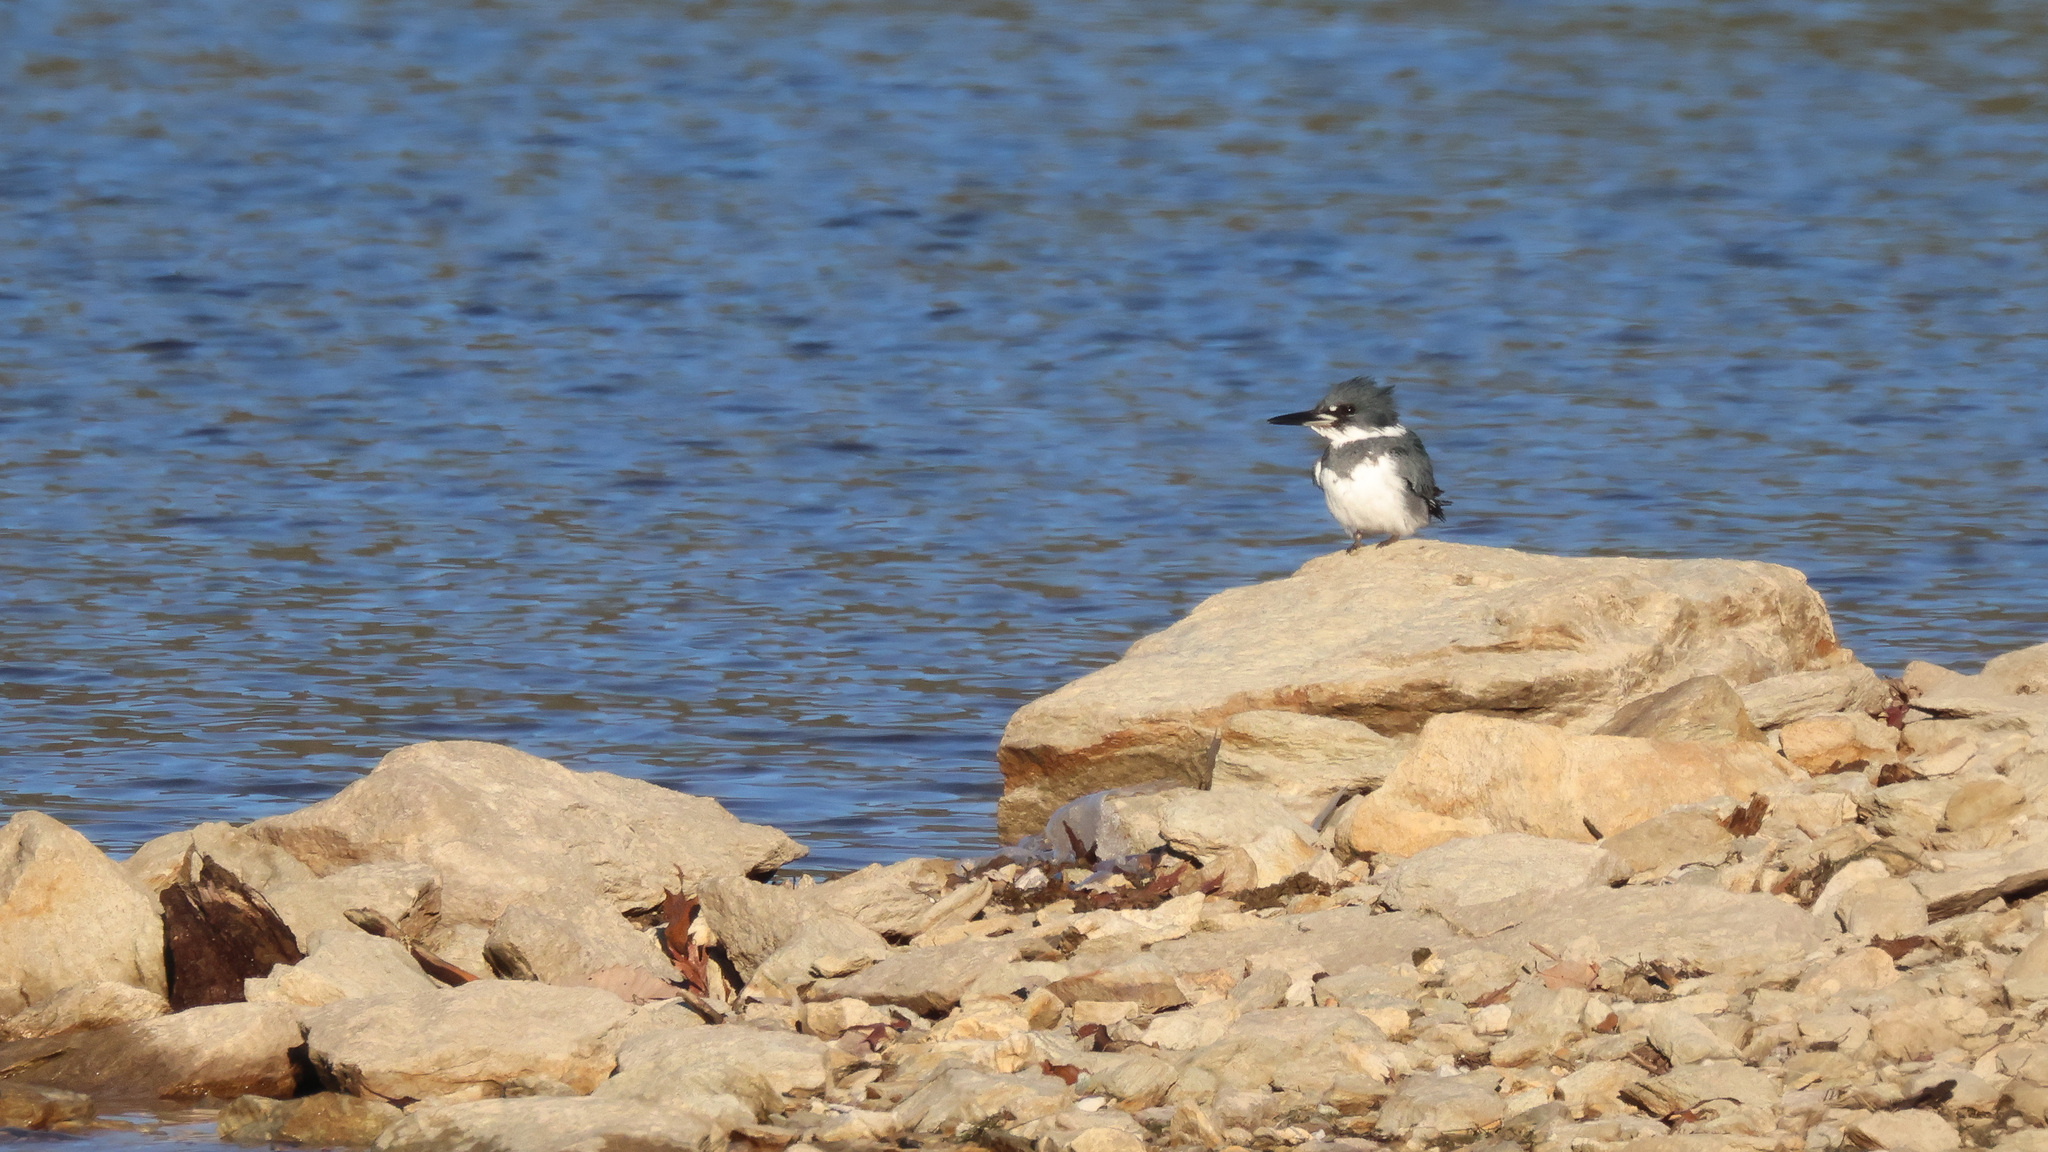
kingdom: Animalia
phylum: Chordata
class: Aves
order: Coraciiformes
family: Alcedinidae
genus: Megaceryle
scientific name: Megaceryle alcyon
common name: Belted kingfisher
